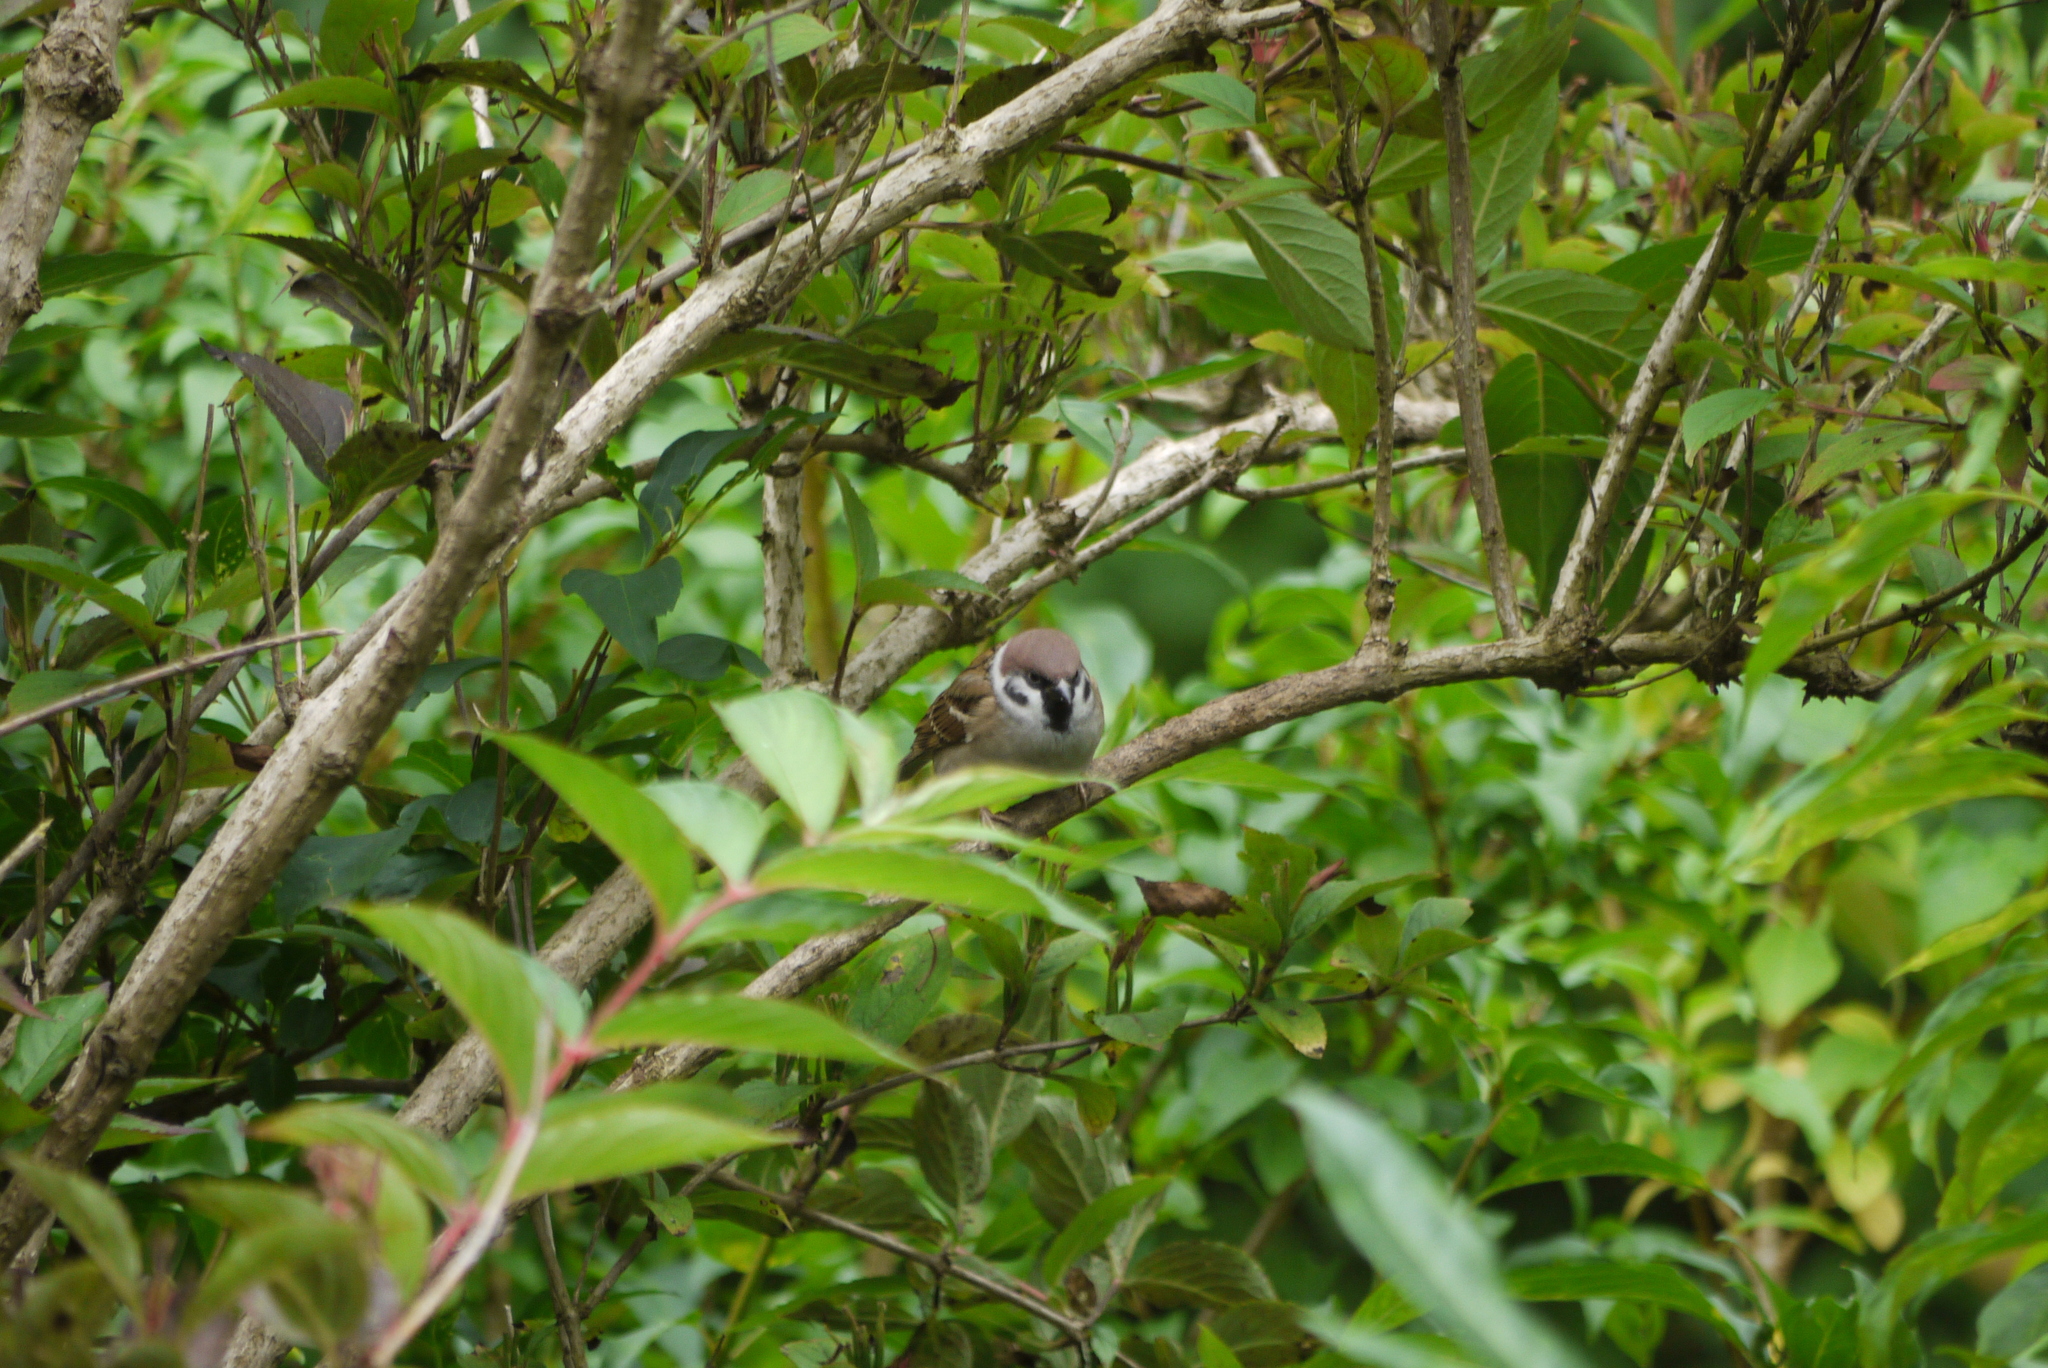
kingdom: Animalia
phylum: Chordata
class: Aves
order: Passeriformes
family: Passeridae
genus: Passer
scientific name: Passer montanus
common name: Eurasian tree sparrow
